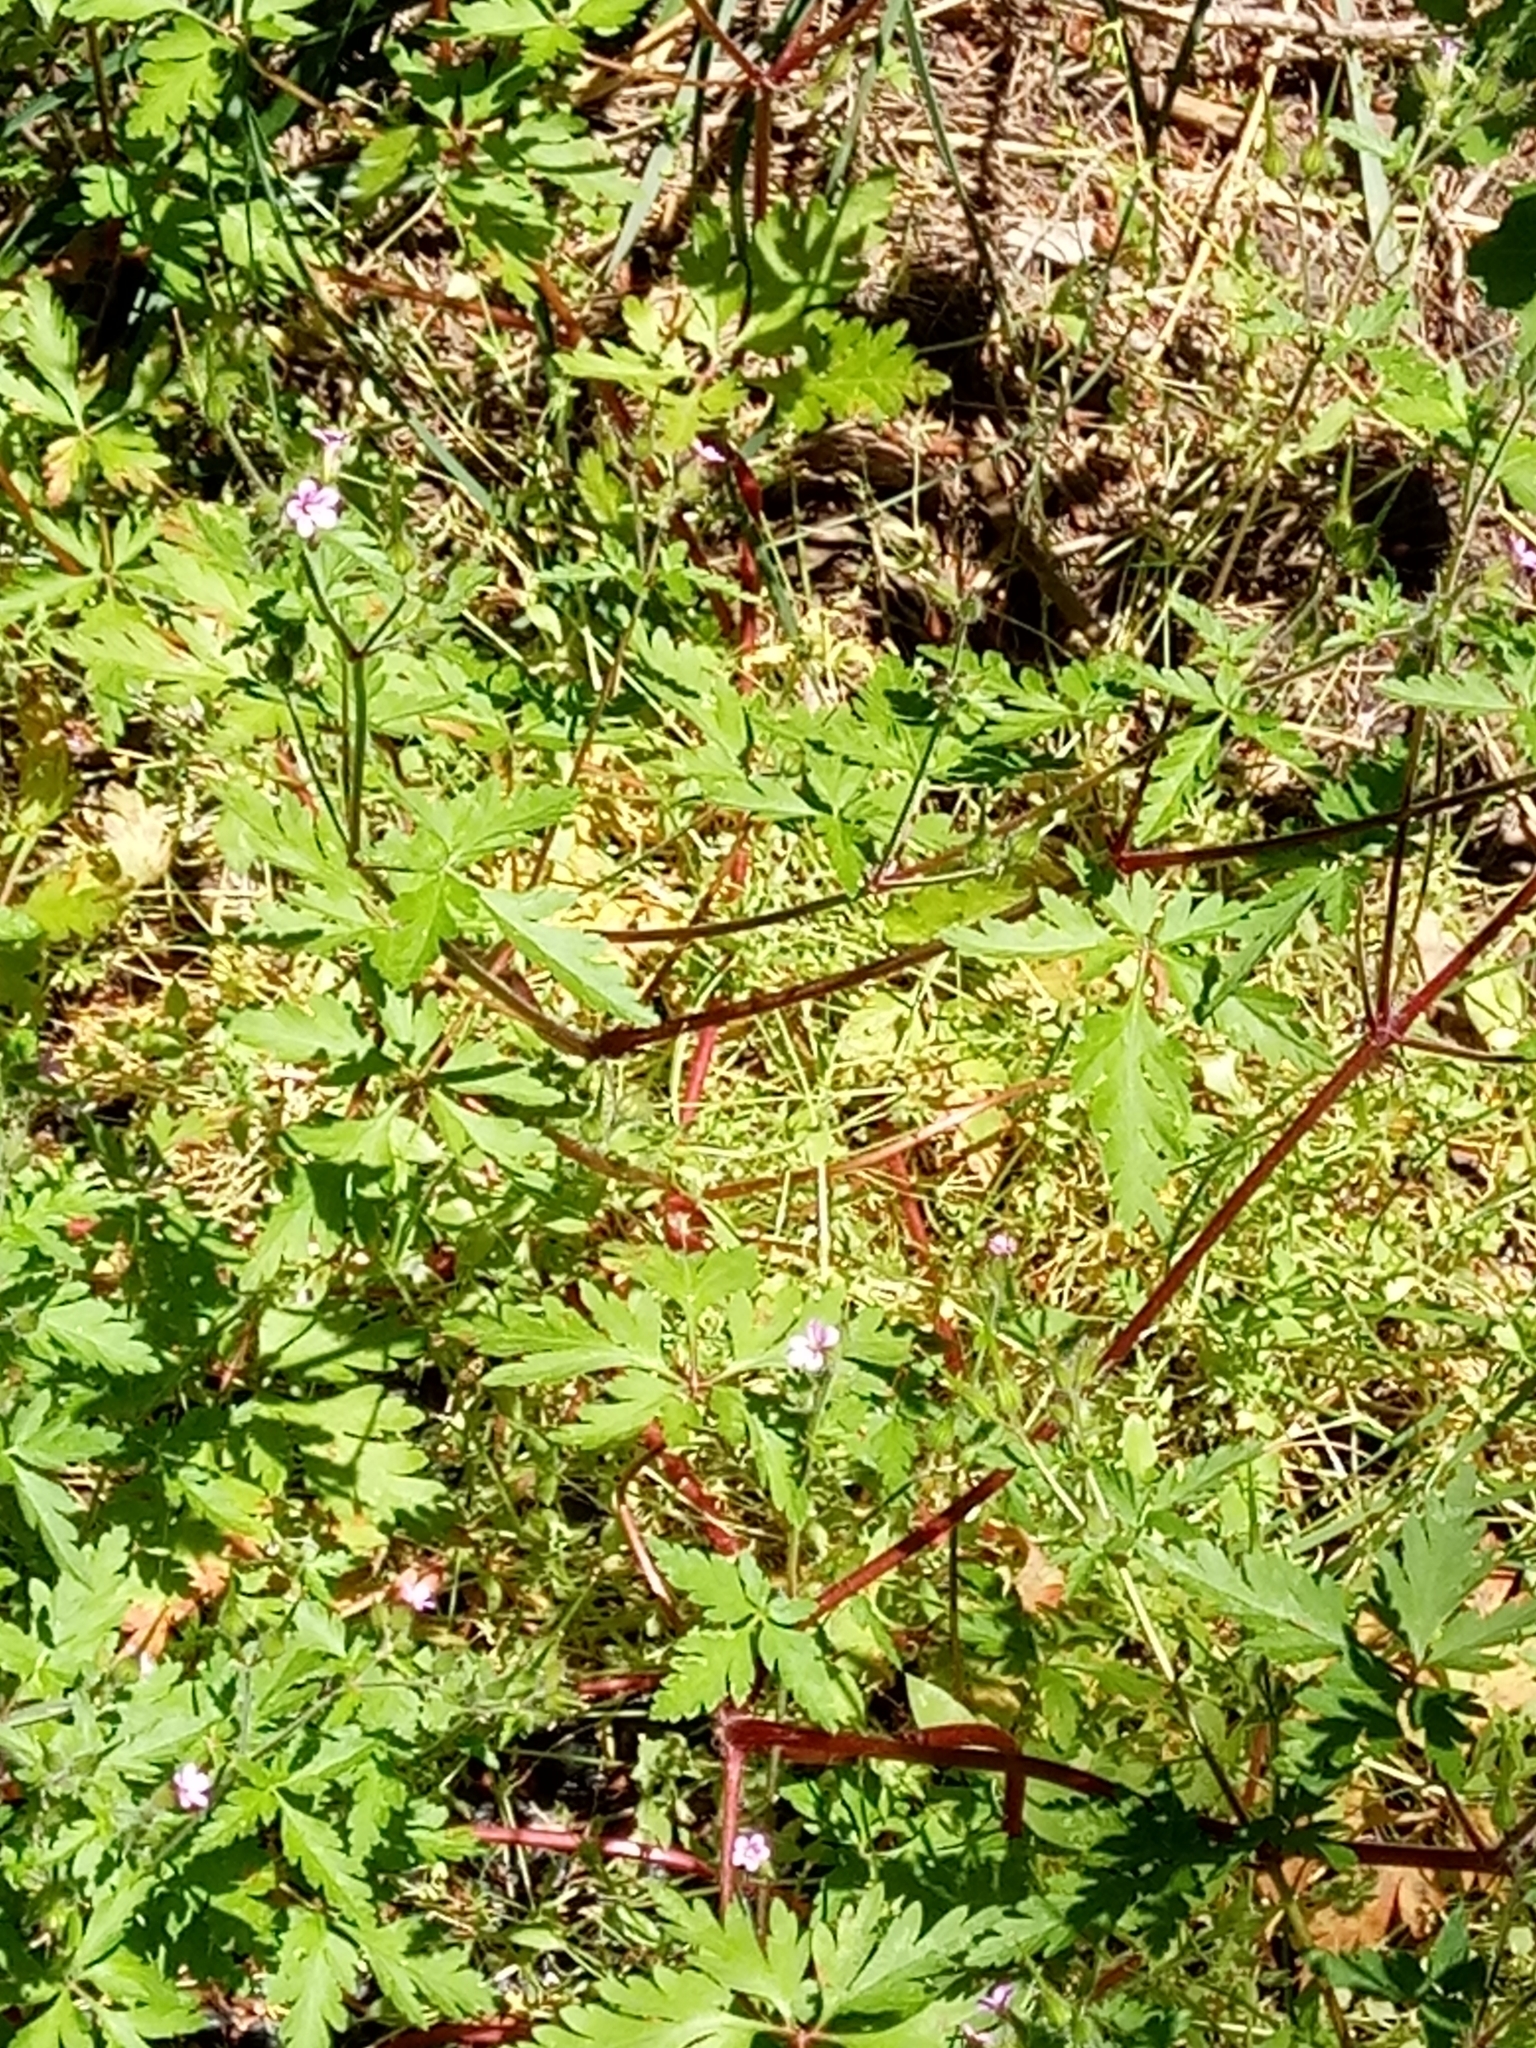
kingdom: Plantae
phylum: Tracheophyta
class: Magnoliopsida
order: Geraniales
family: Geraniaceae
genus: Geranium
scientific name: Geranium purpureum
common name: Little-robin
